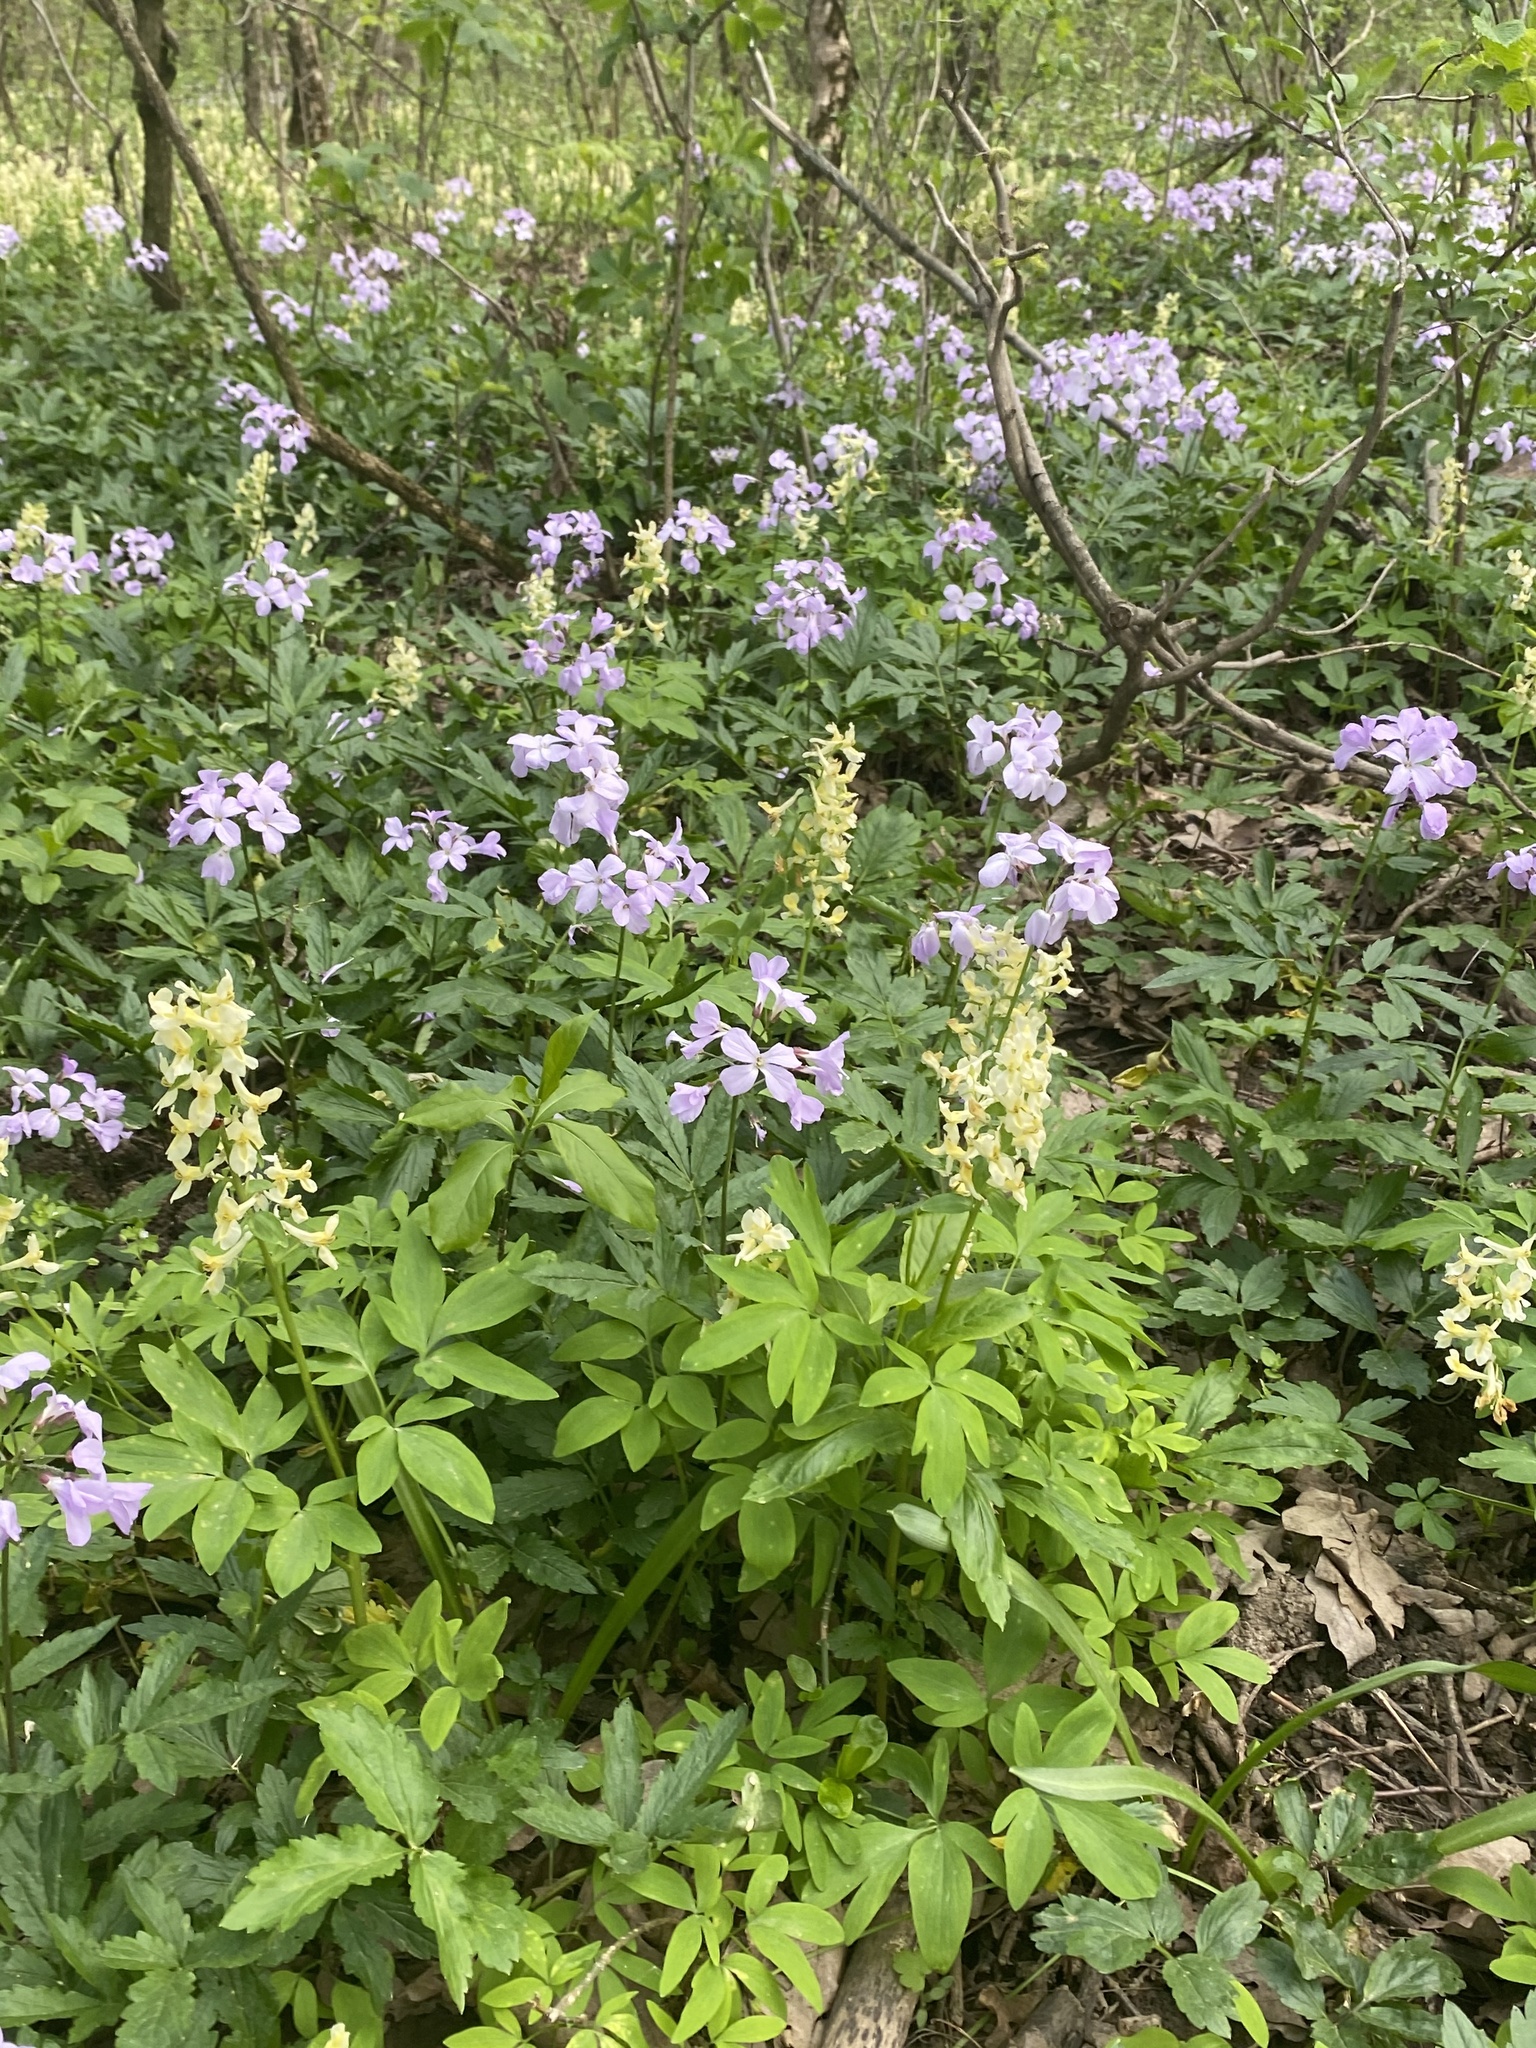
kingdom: Plantae
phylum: Tracheophyta
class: Magnoliopsida
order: Brassicales
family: Brassicaceae
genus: Cardamine
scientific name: Cardamine quinquefolia
